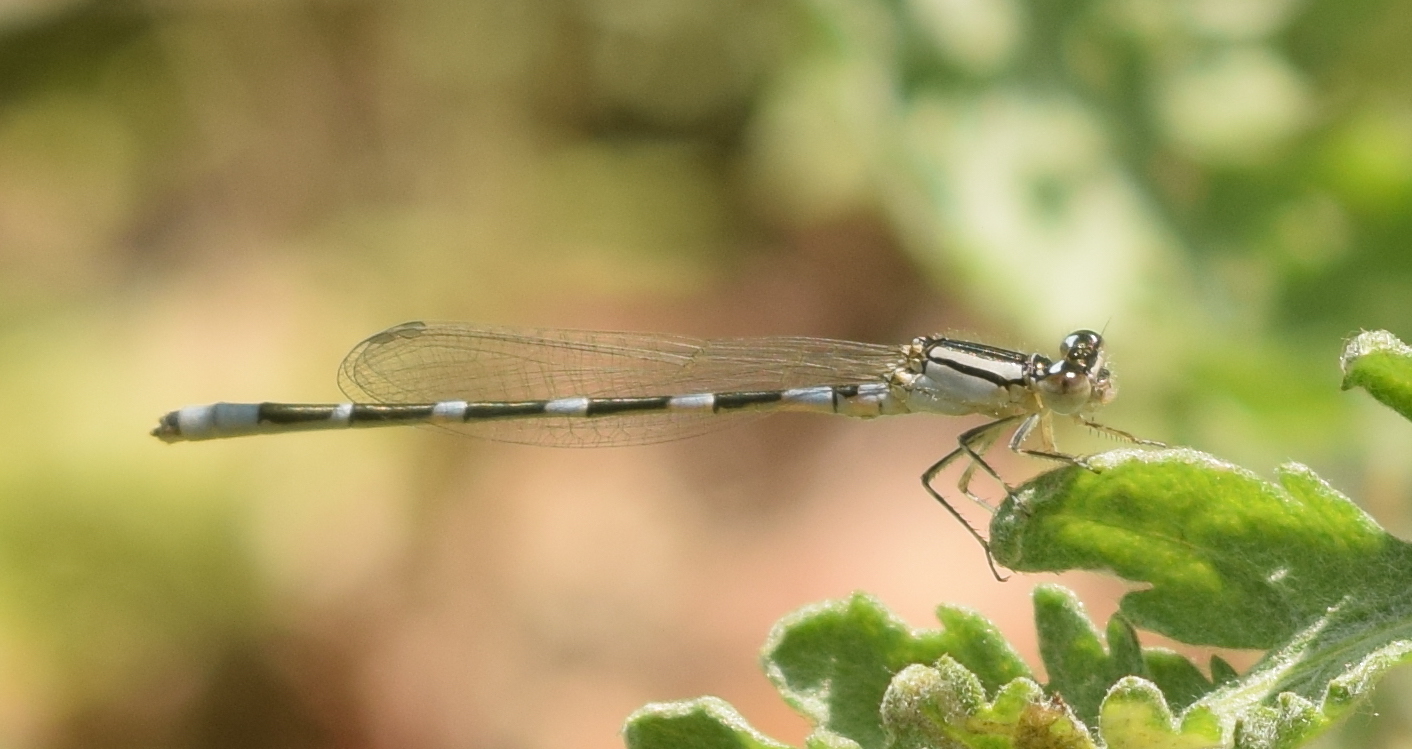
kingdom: Animalia
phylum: Arthropoda
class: Insecta
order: Odonata
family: Coenagrionidae
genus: Enallagma
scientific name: Enallagma carunculatum
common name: Tule bluet
